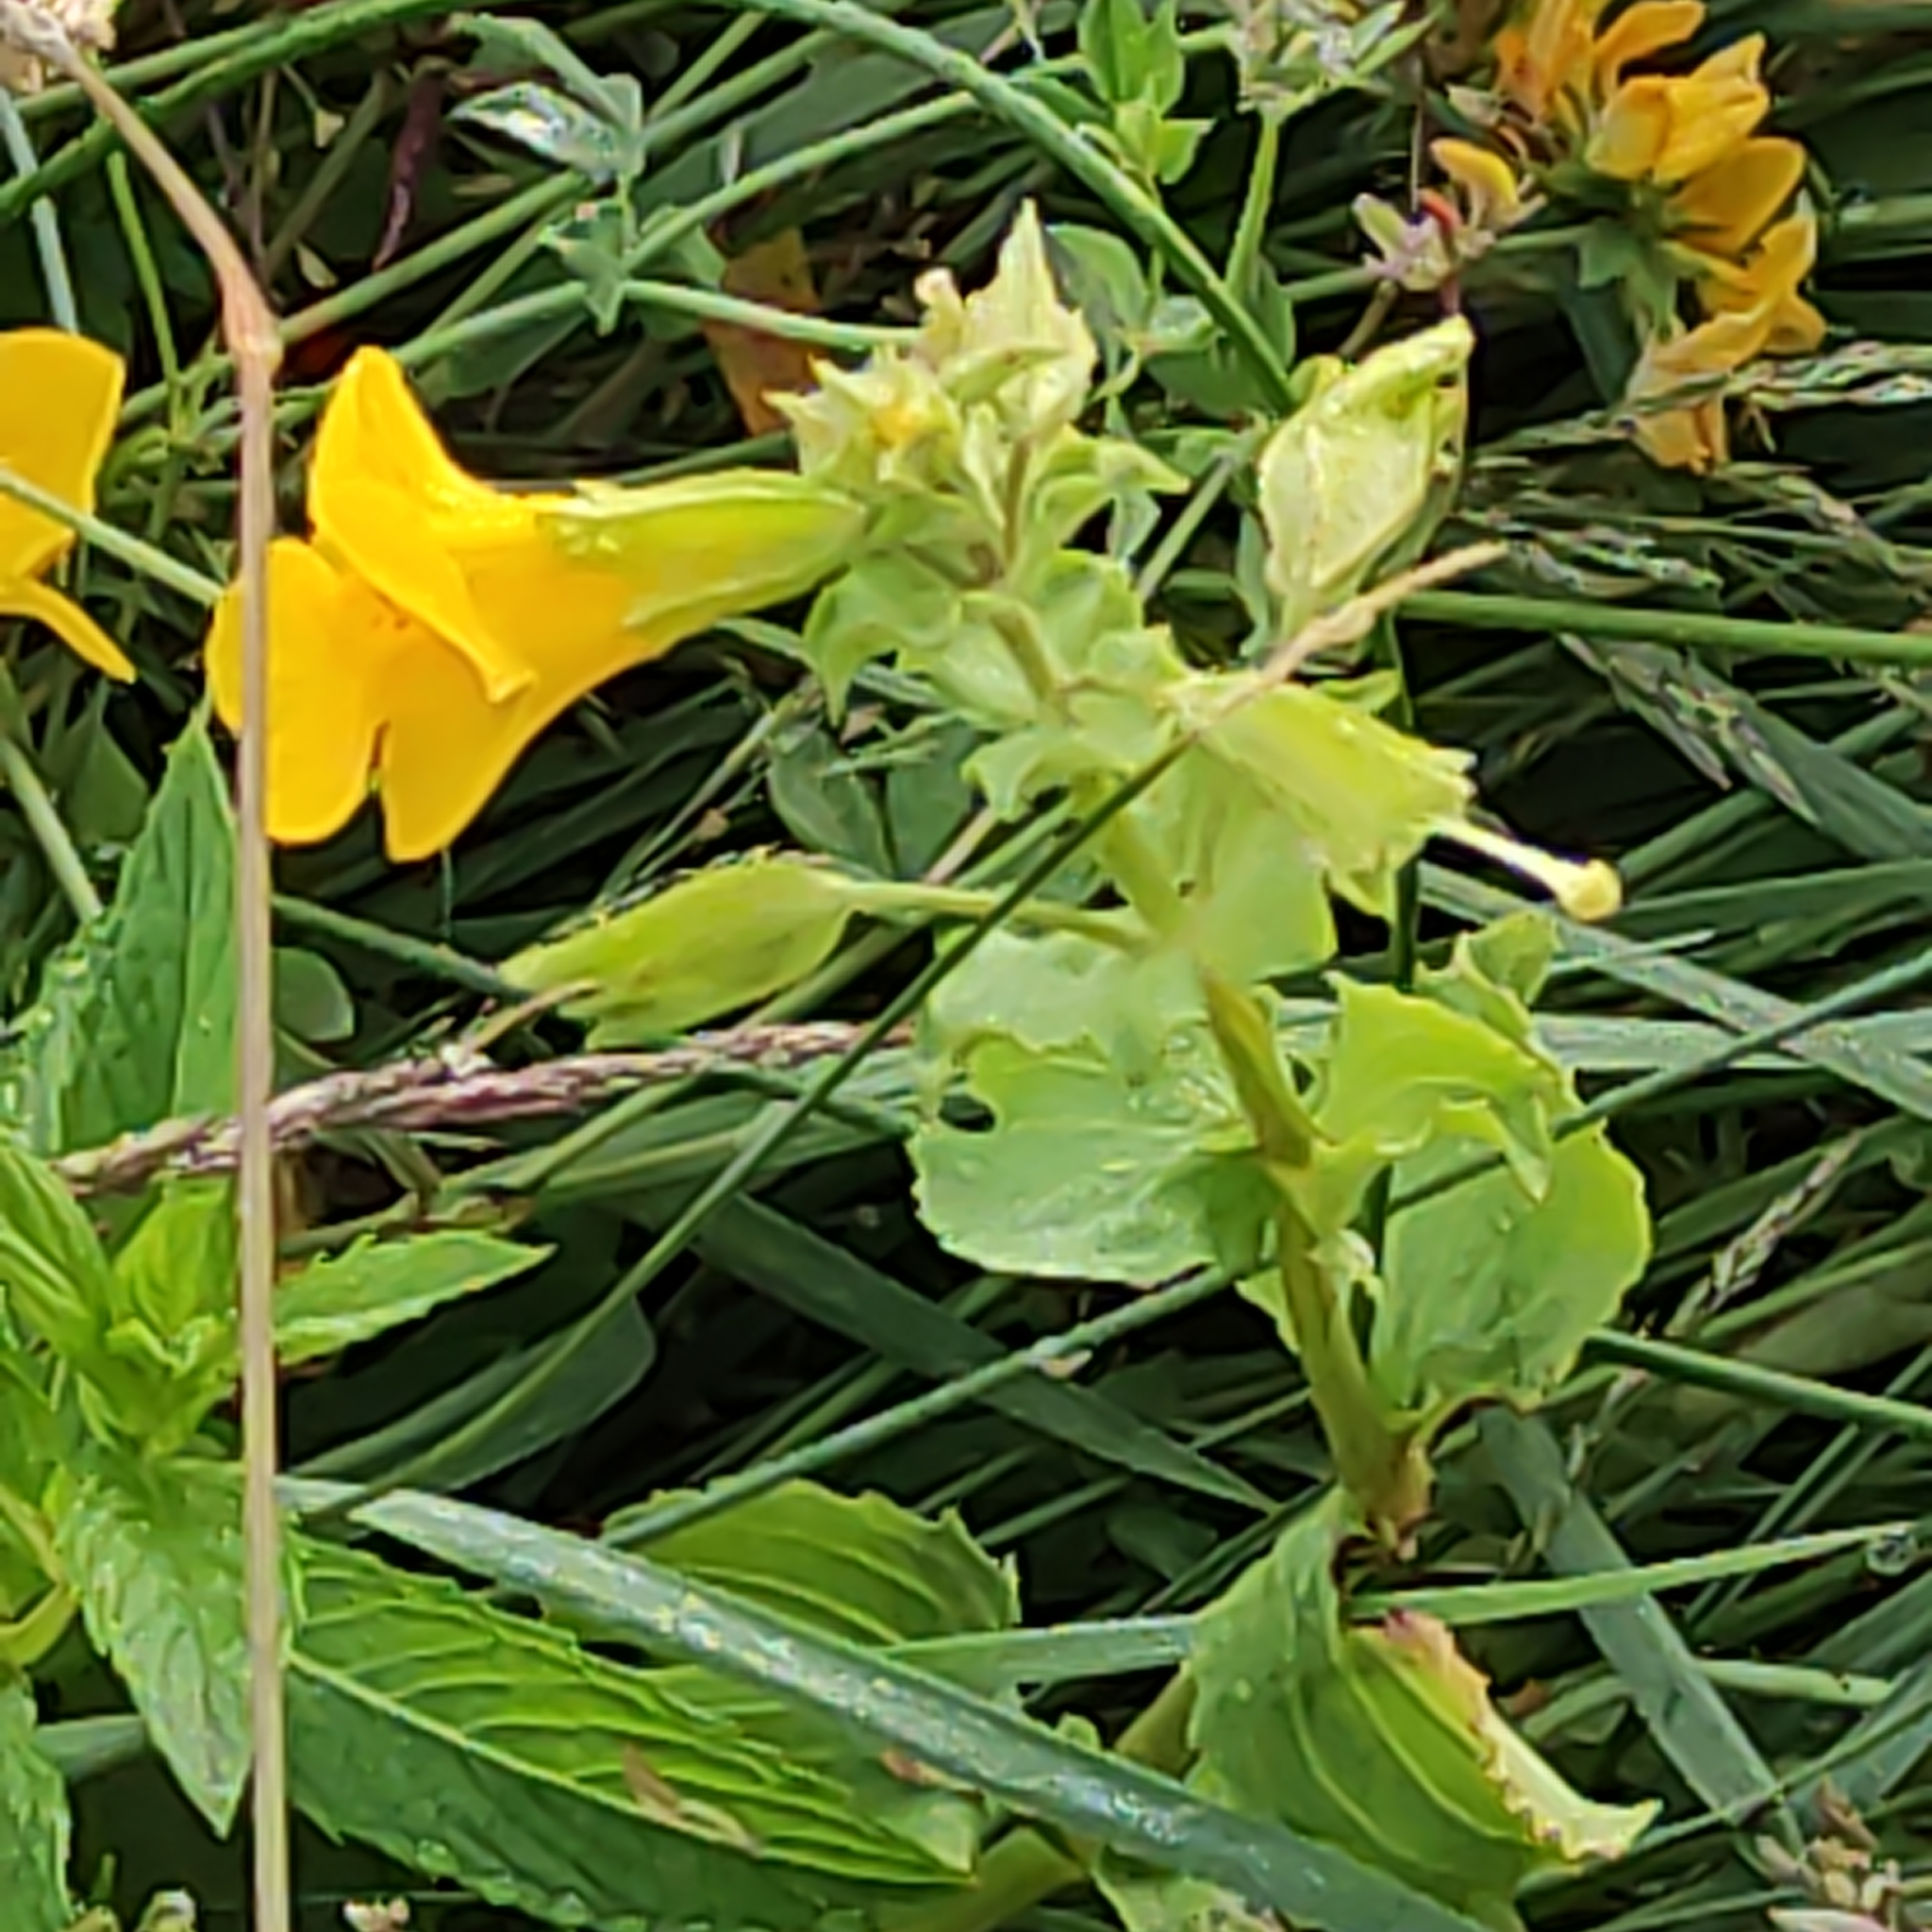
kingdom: Plantae
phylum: Tracheophyta
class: Magnoliopsida
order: Lamiales
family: Phrymaceae
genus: Erythranthe
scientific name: Erythranthe guttata
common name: Monkeyflower
